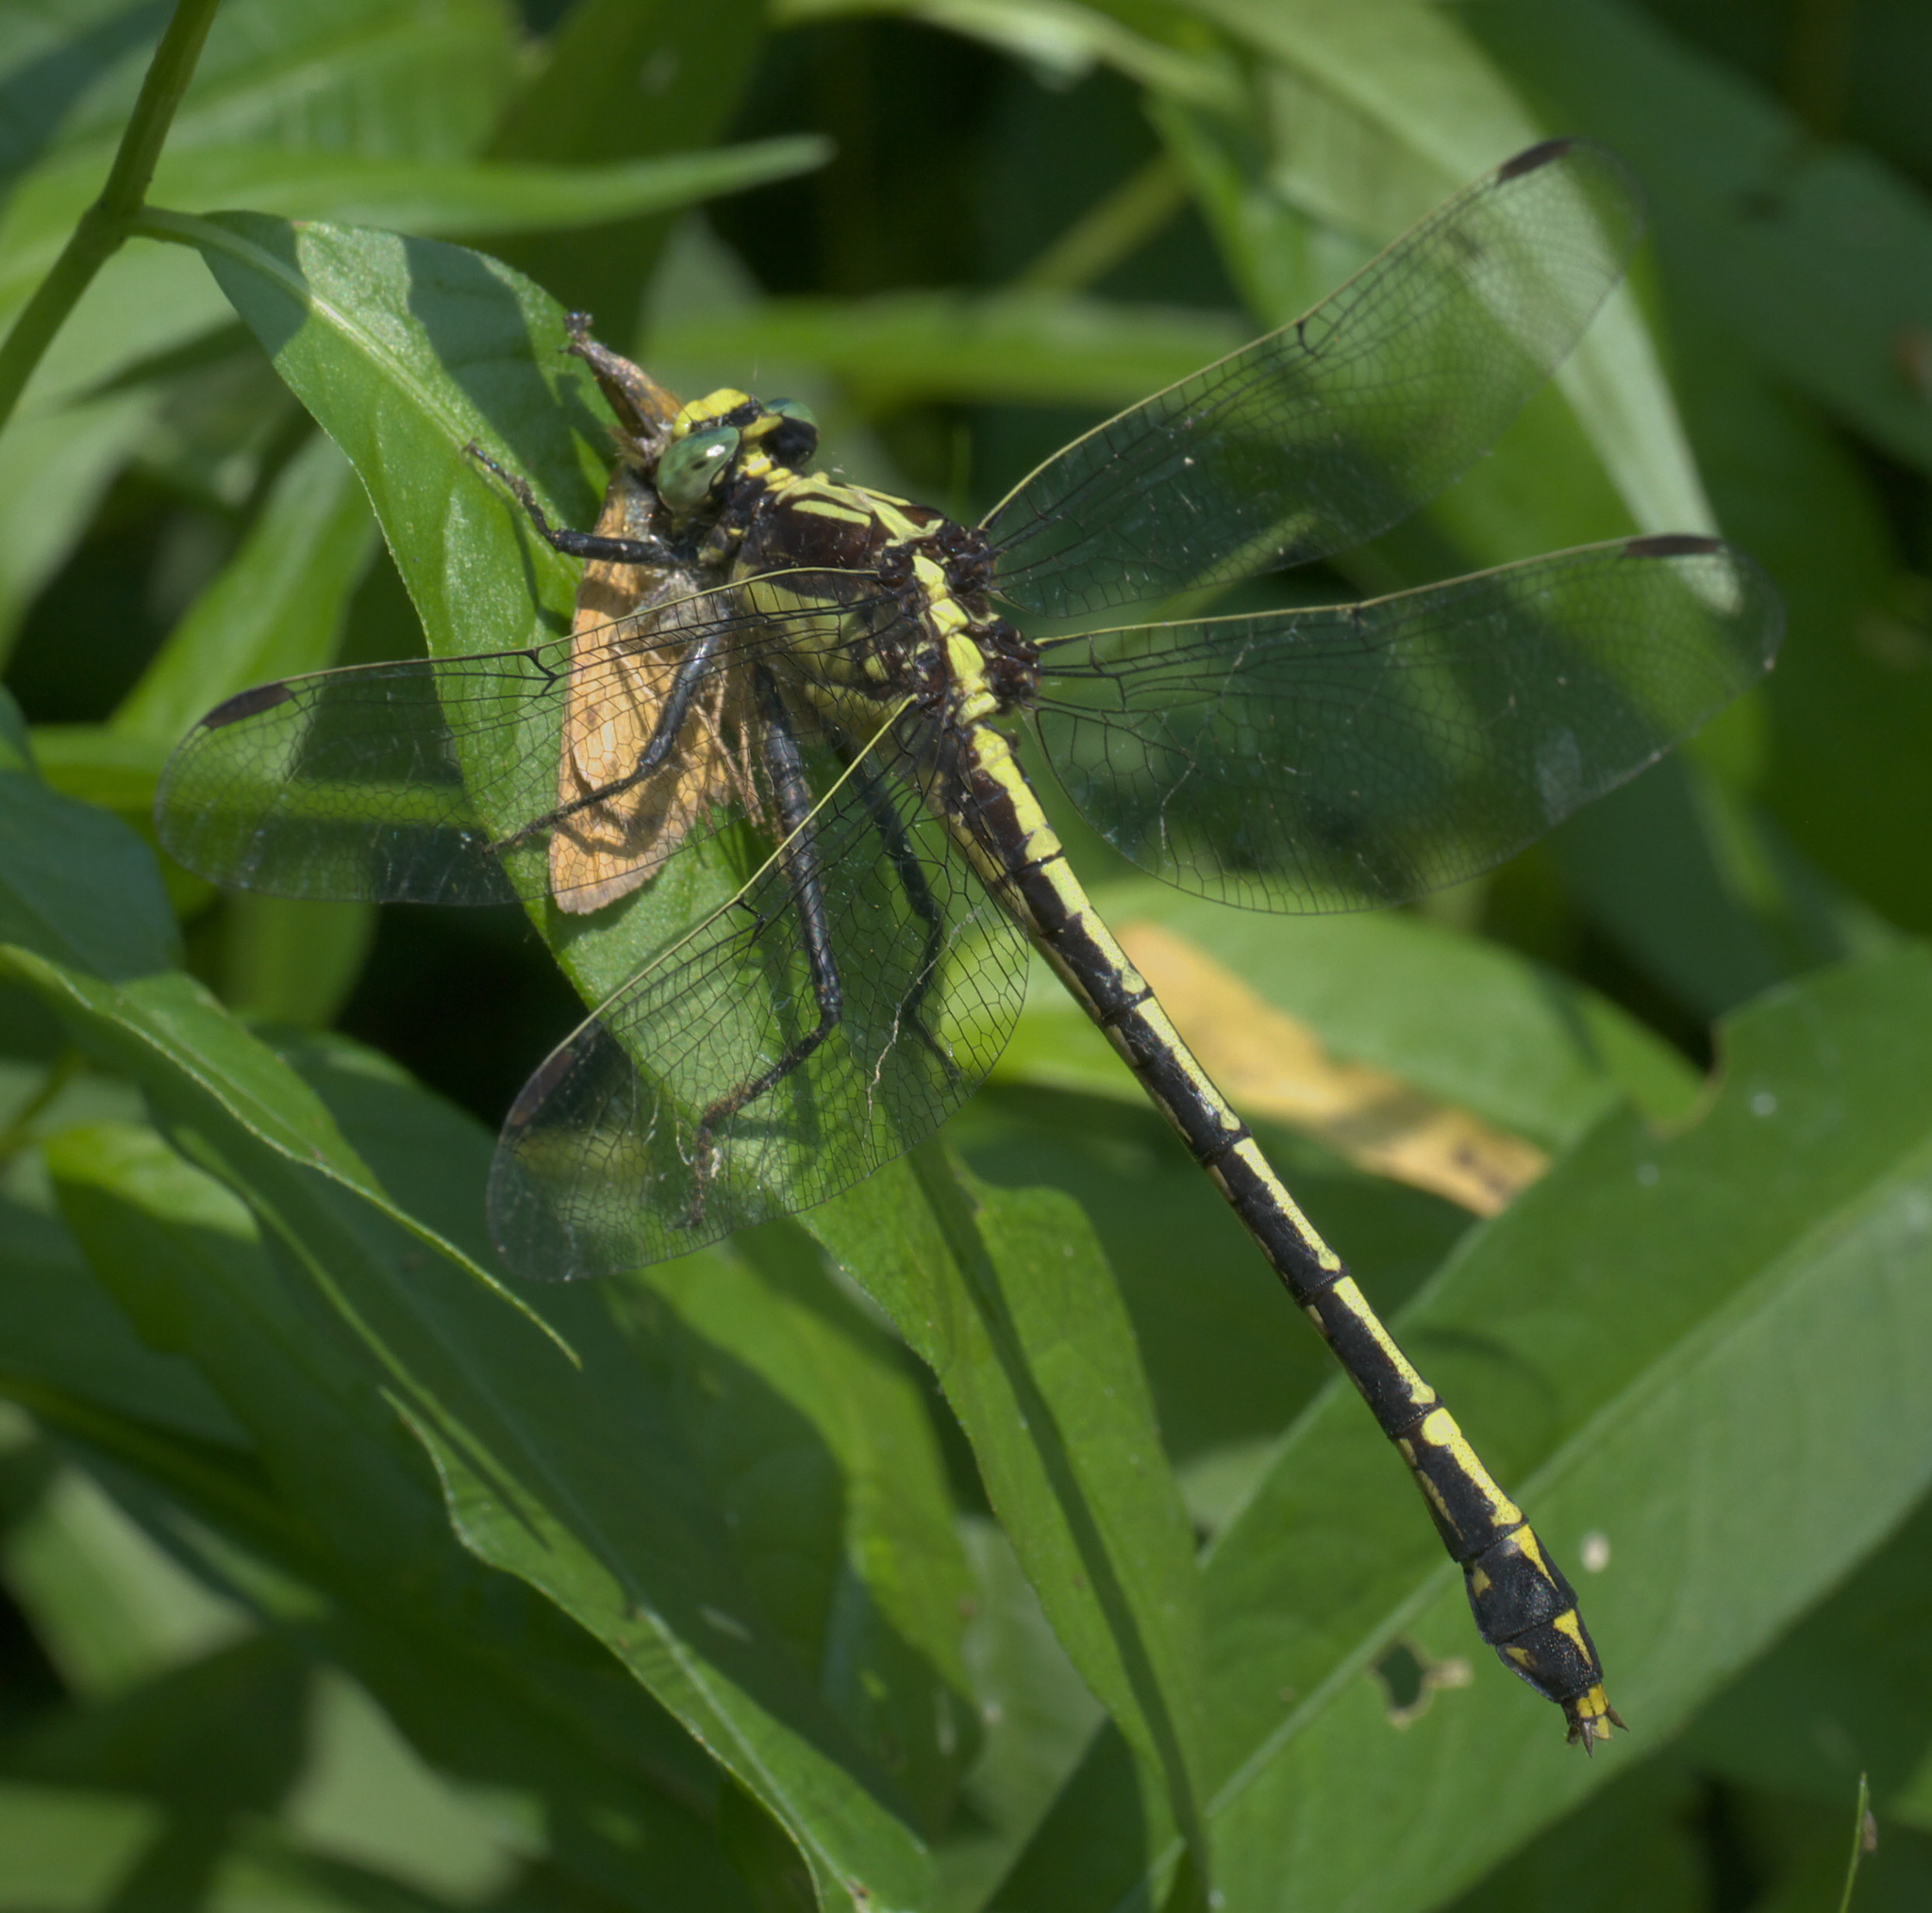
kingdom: Animalia
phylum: Arthropoda
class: Insecta
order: Odonata
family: Gomphidae
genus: Dromogomphus
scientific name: Dromogomphus spinosus
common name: Black-shouldered spinyleg
